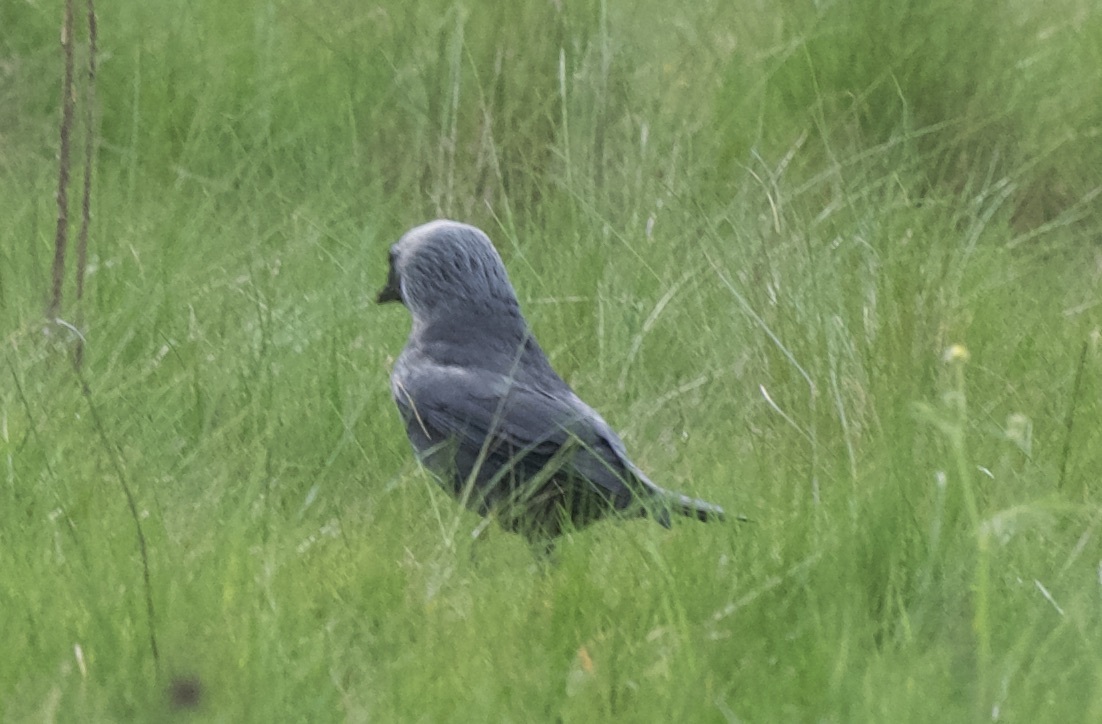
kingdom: Animalia
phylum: Chordata
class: Aves
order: Passeriformes
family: Corvidae
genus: Coloeus
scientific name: Coloeus monedula
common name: Western jackdaw
